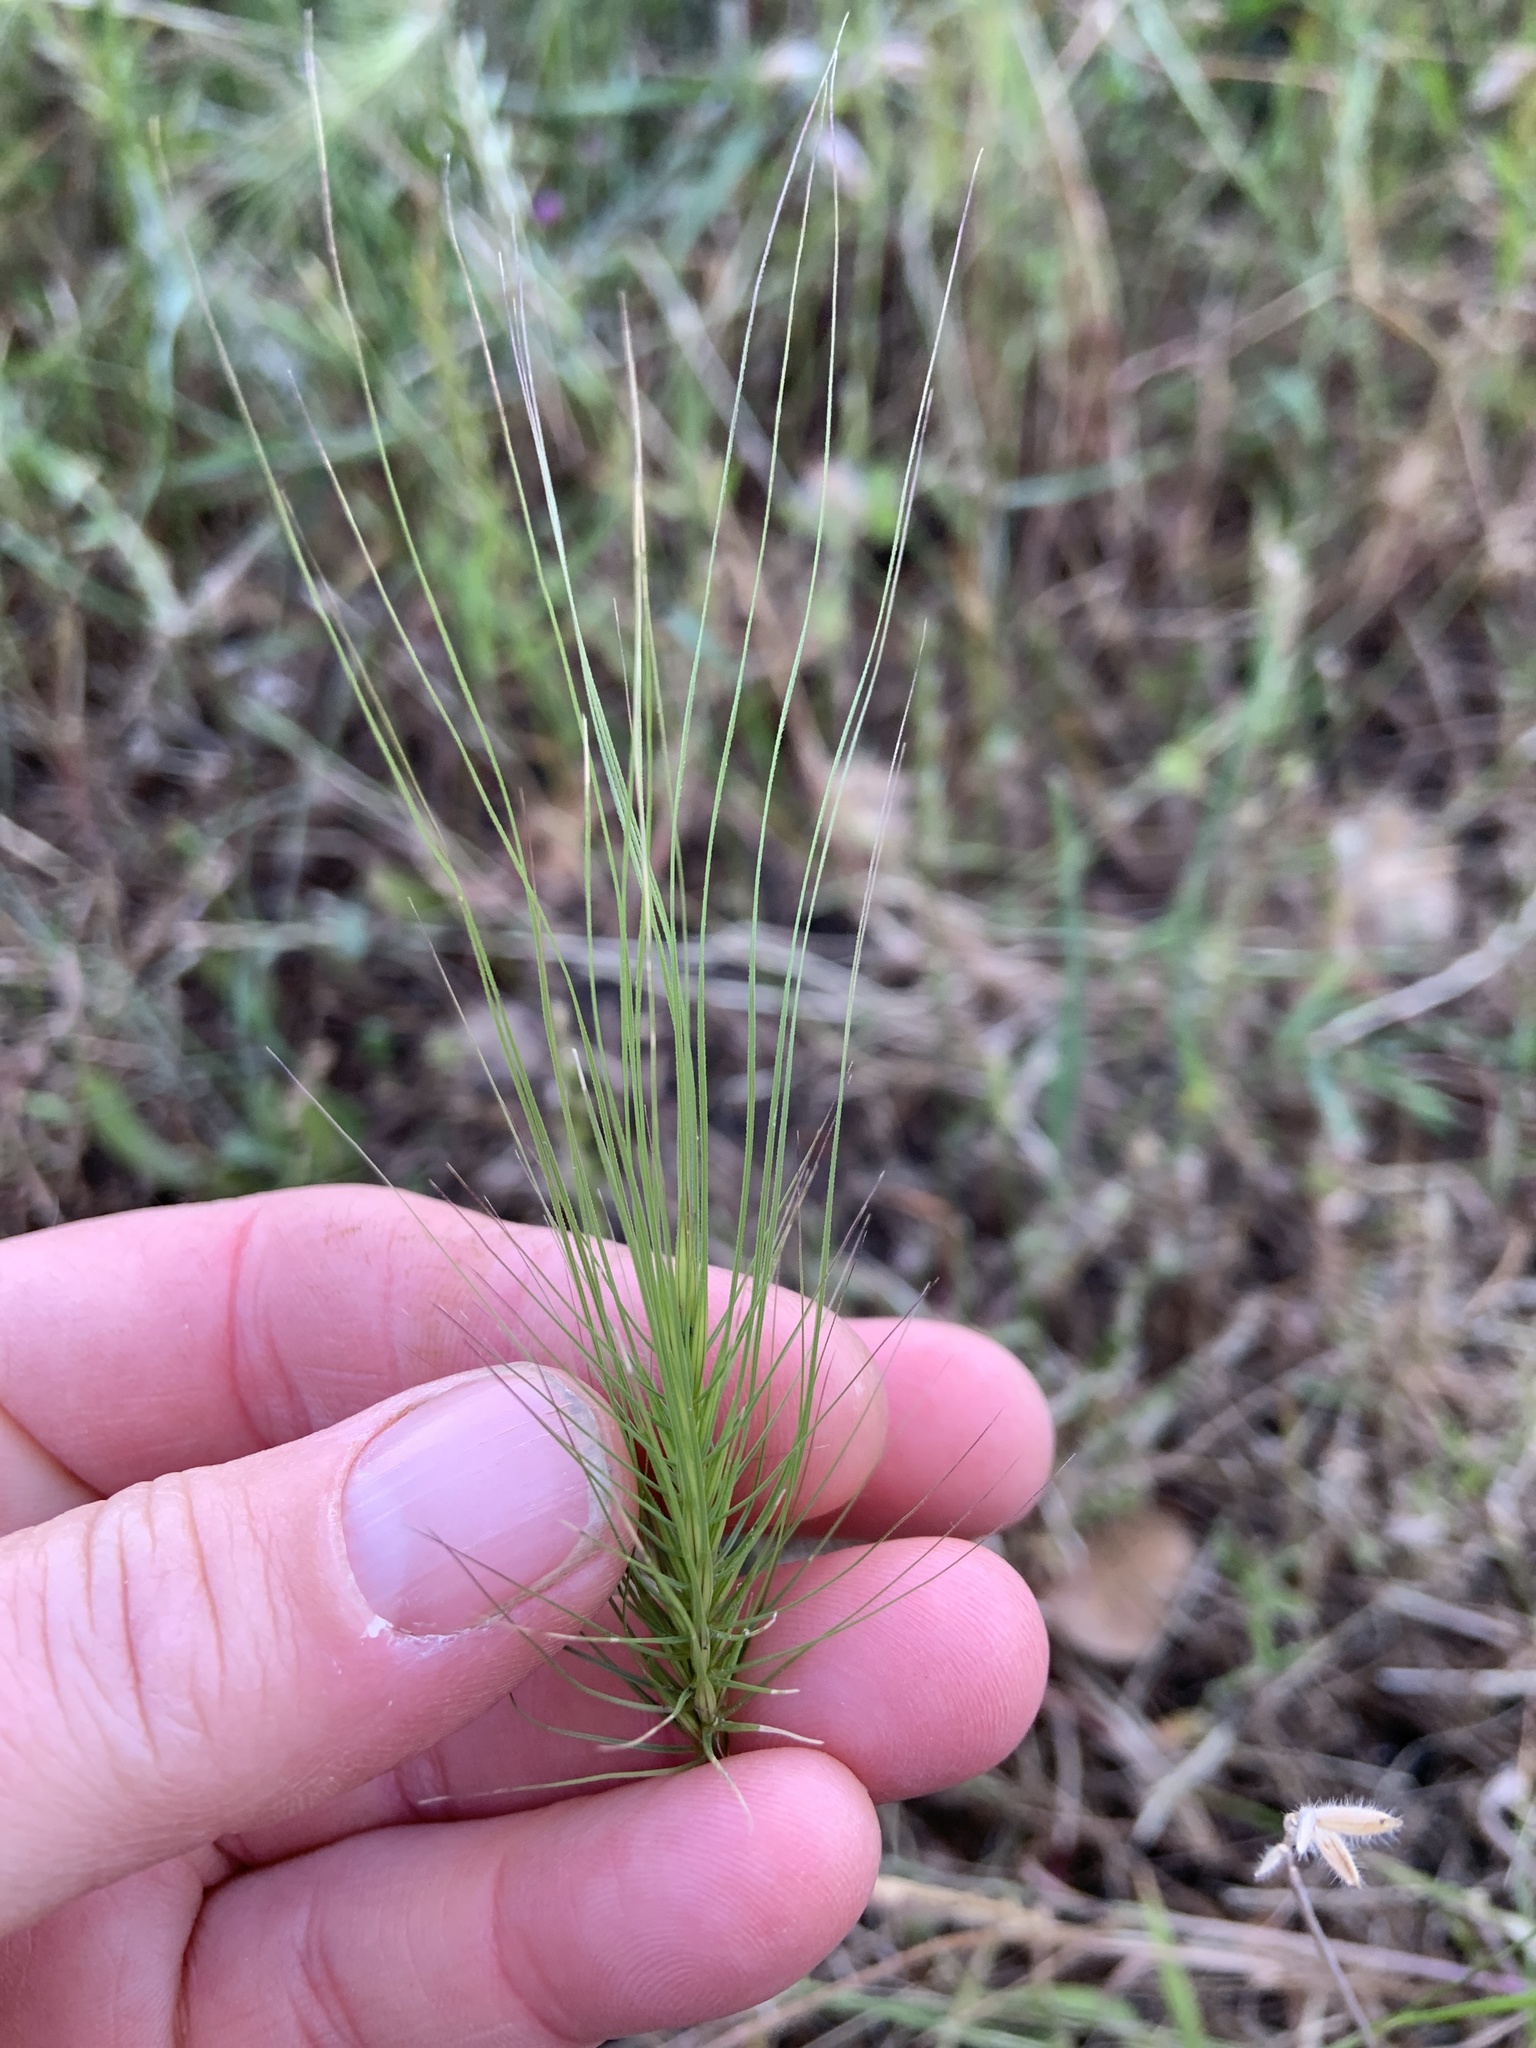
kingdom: Plantae
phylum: Tracheophyta
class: Liliopsida
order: Poales
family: Poaceae
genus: Taeniatherum
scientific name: Taeniatherum caput-medusae
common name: Medusahead
